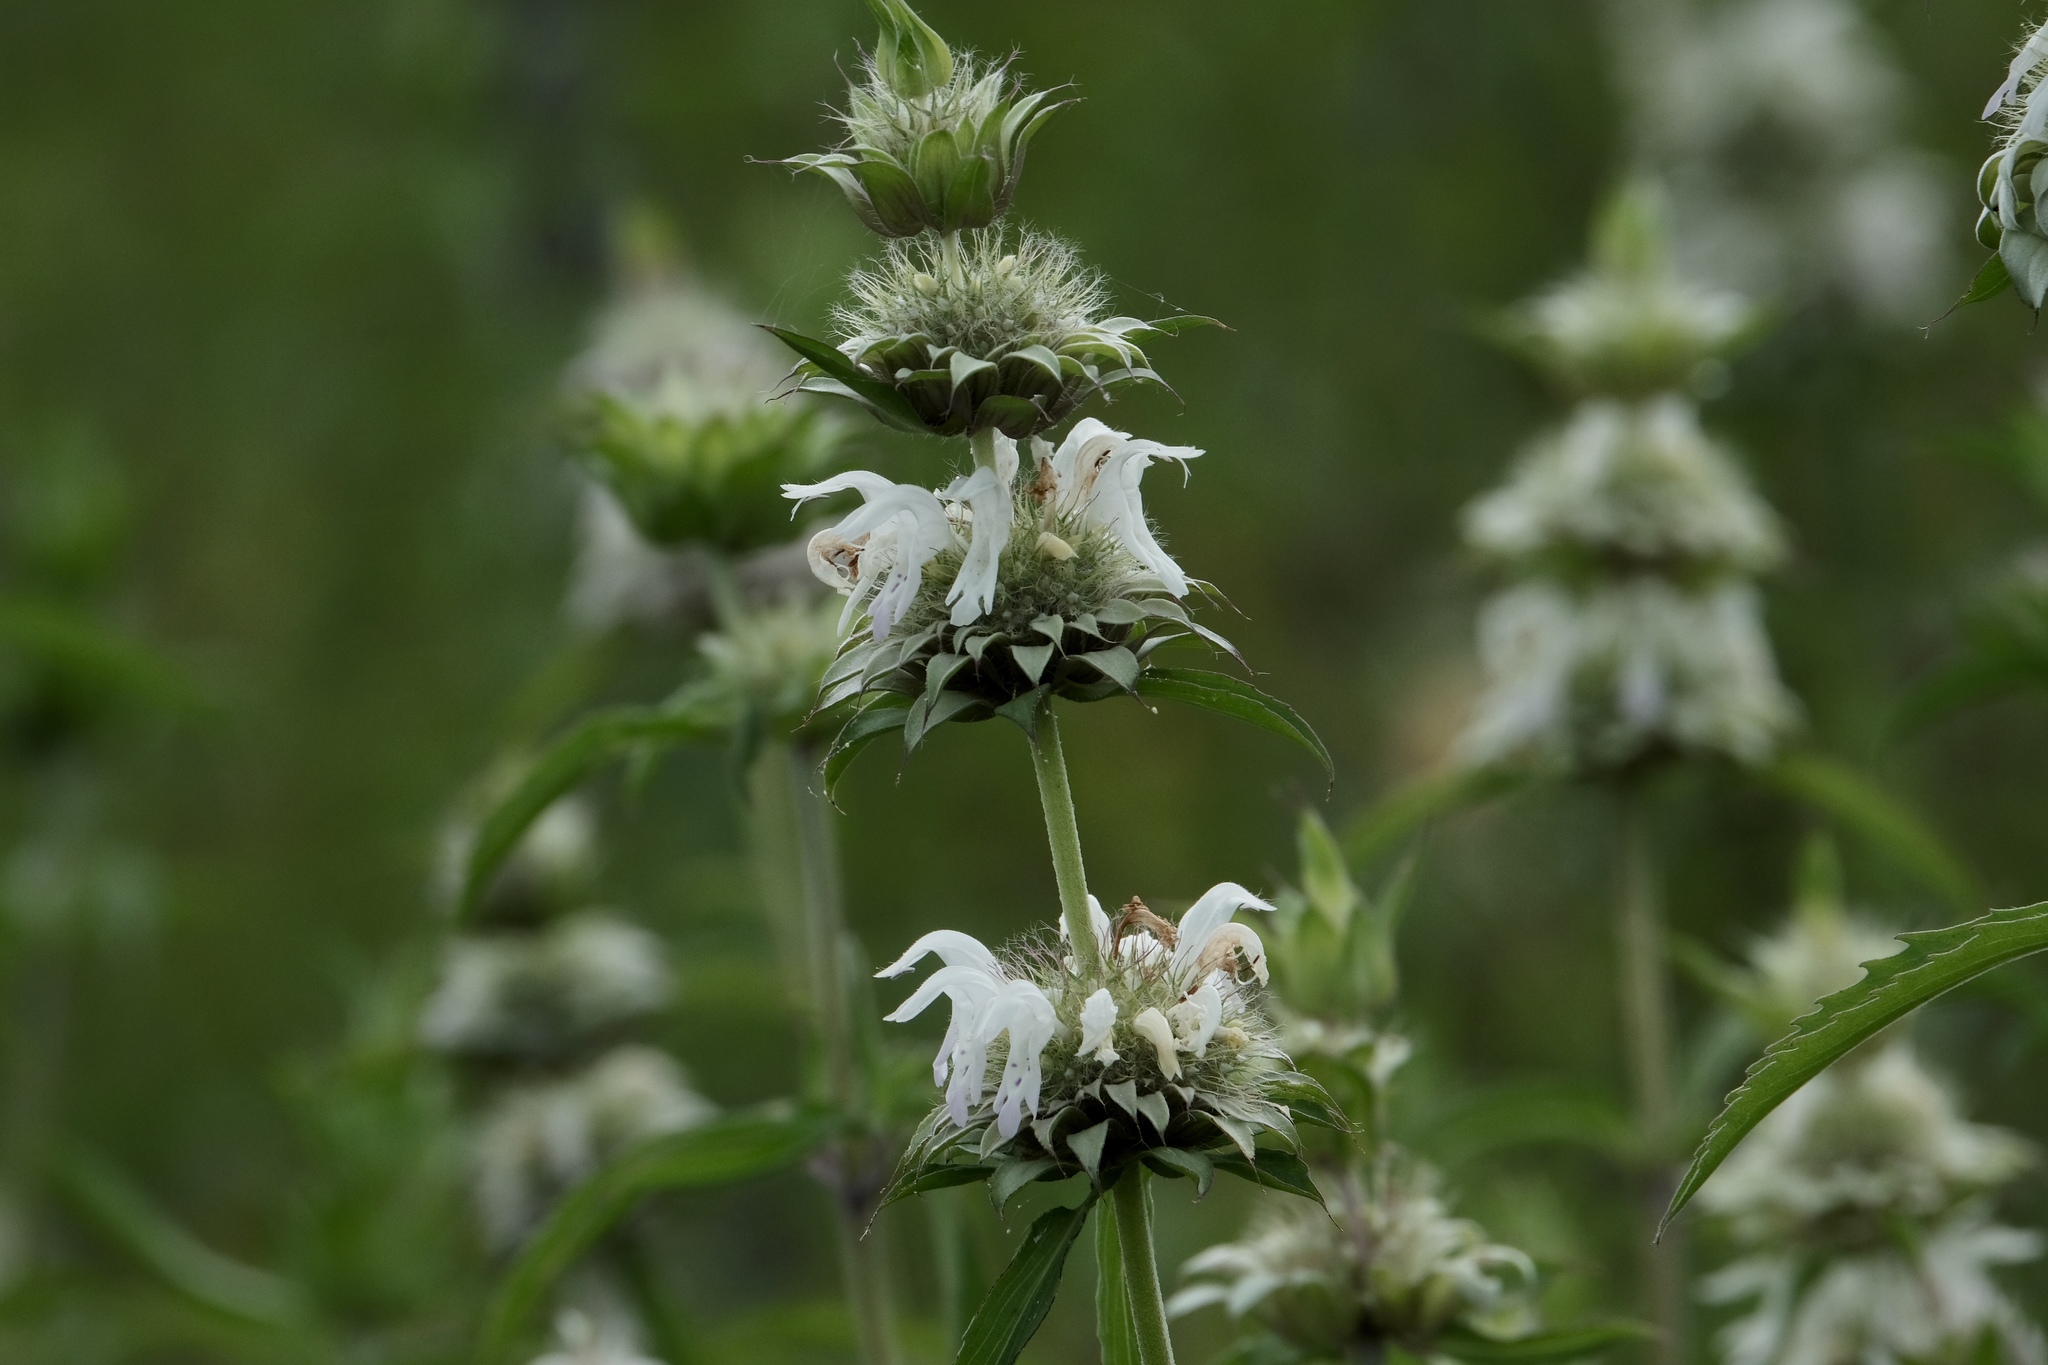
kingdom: Plantae
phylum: Tracheophyta
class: Magnoliopsida
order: Lamiales
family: Lamiaceae
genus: Monarda
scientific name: Monarda citriodora
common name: Lemon beebalm
